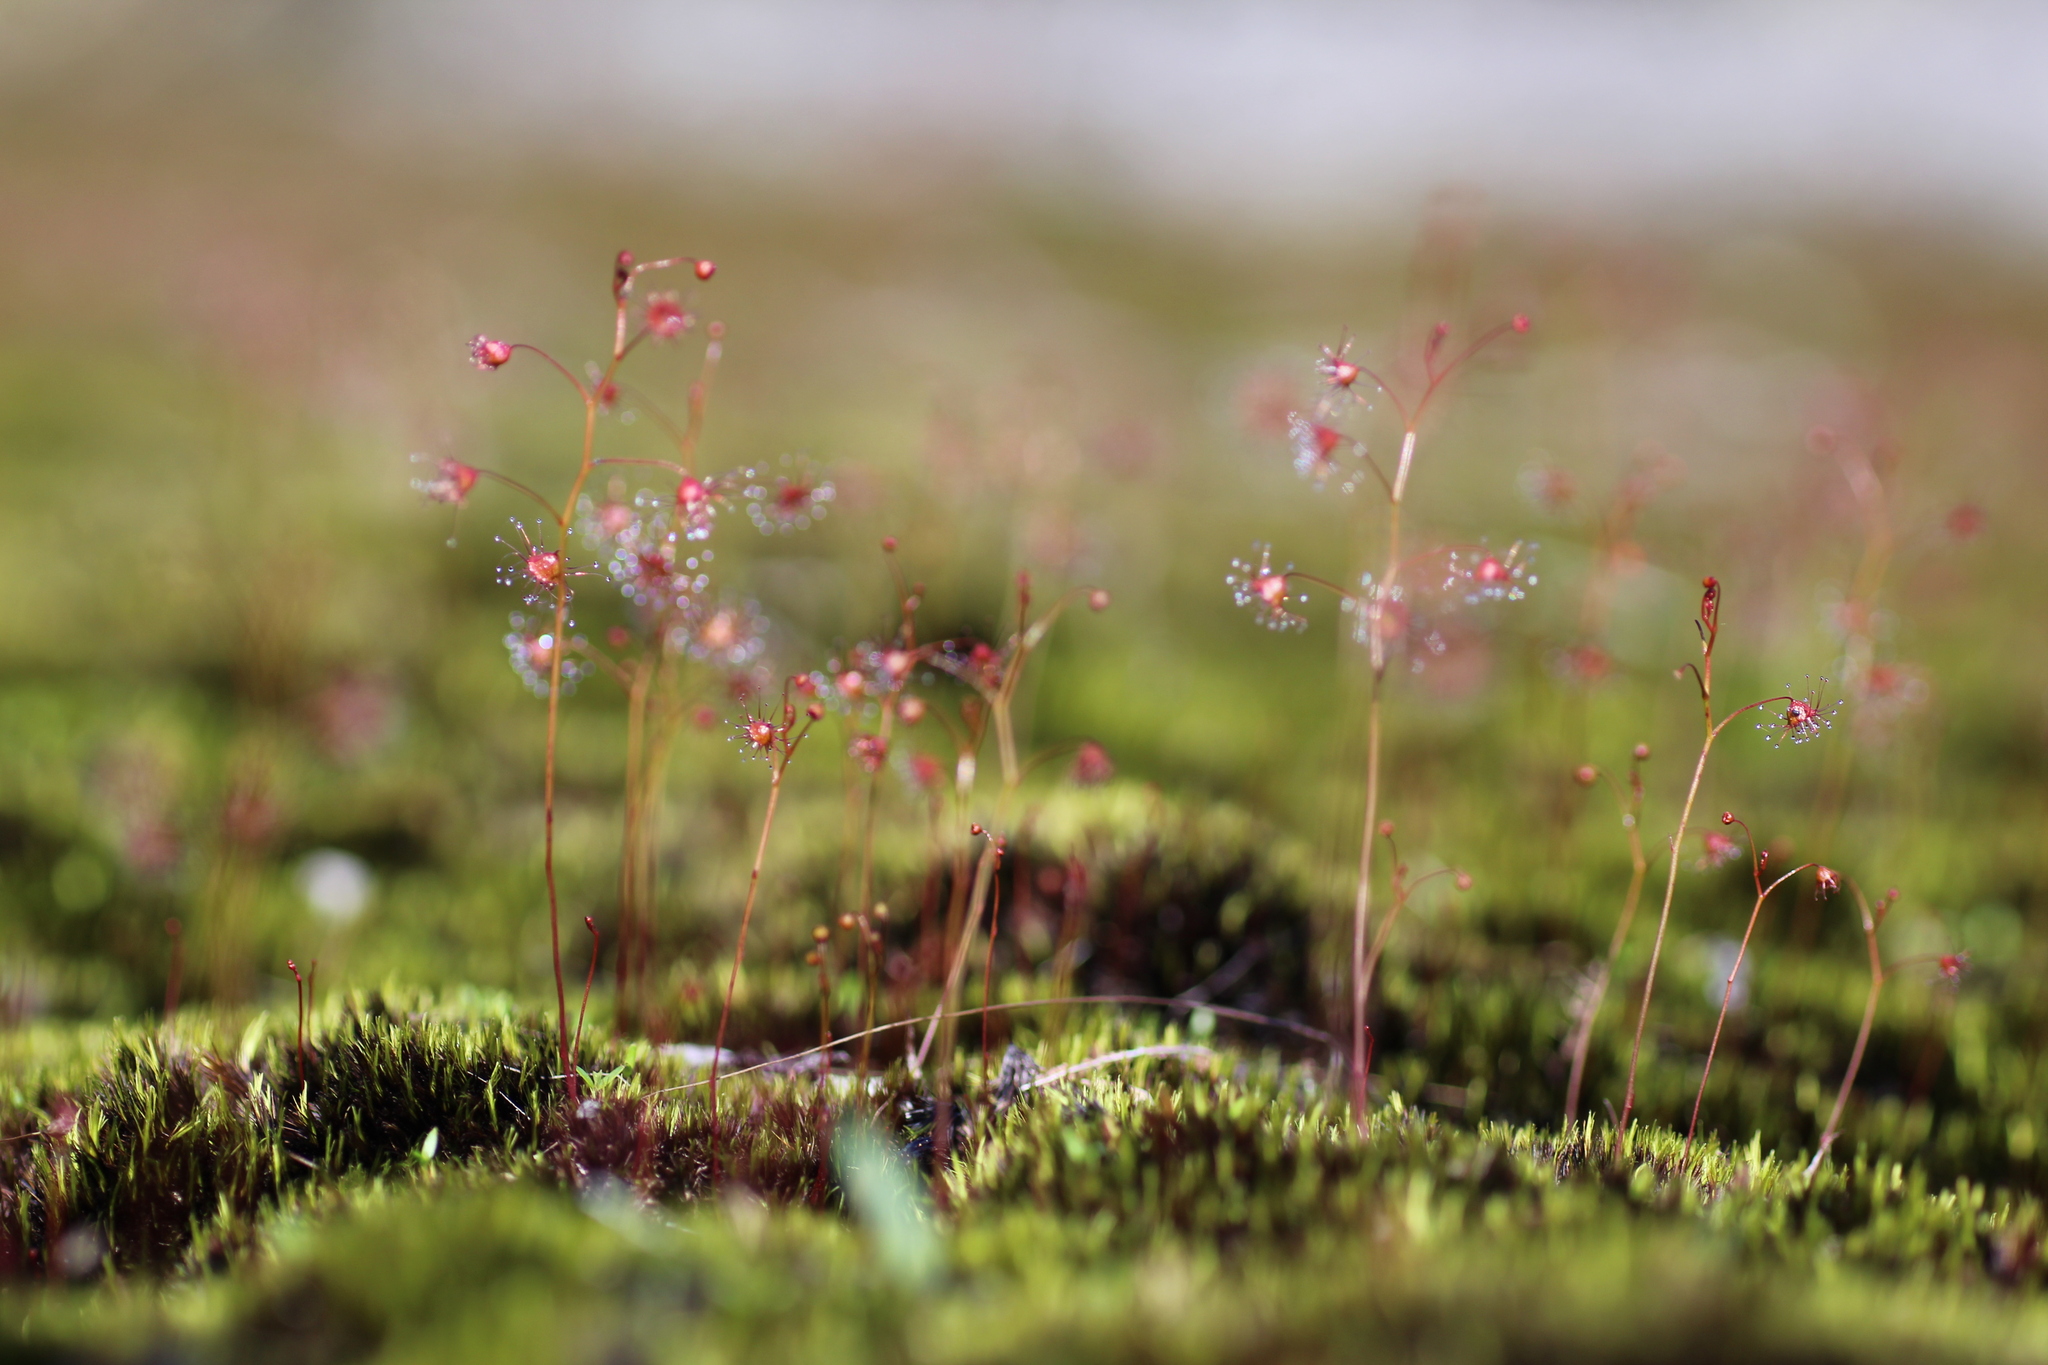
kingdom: Plantae
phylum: Tracheophyta
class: Magnoliopsida
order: Caryophyllales
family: Droseraceae
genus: Drosera
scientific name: Drosera huegelii
